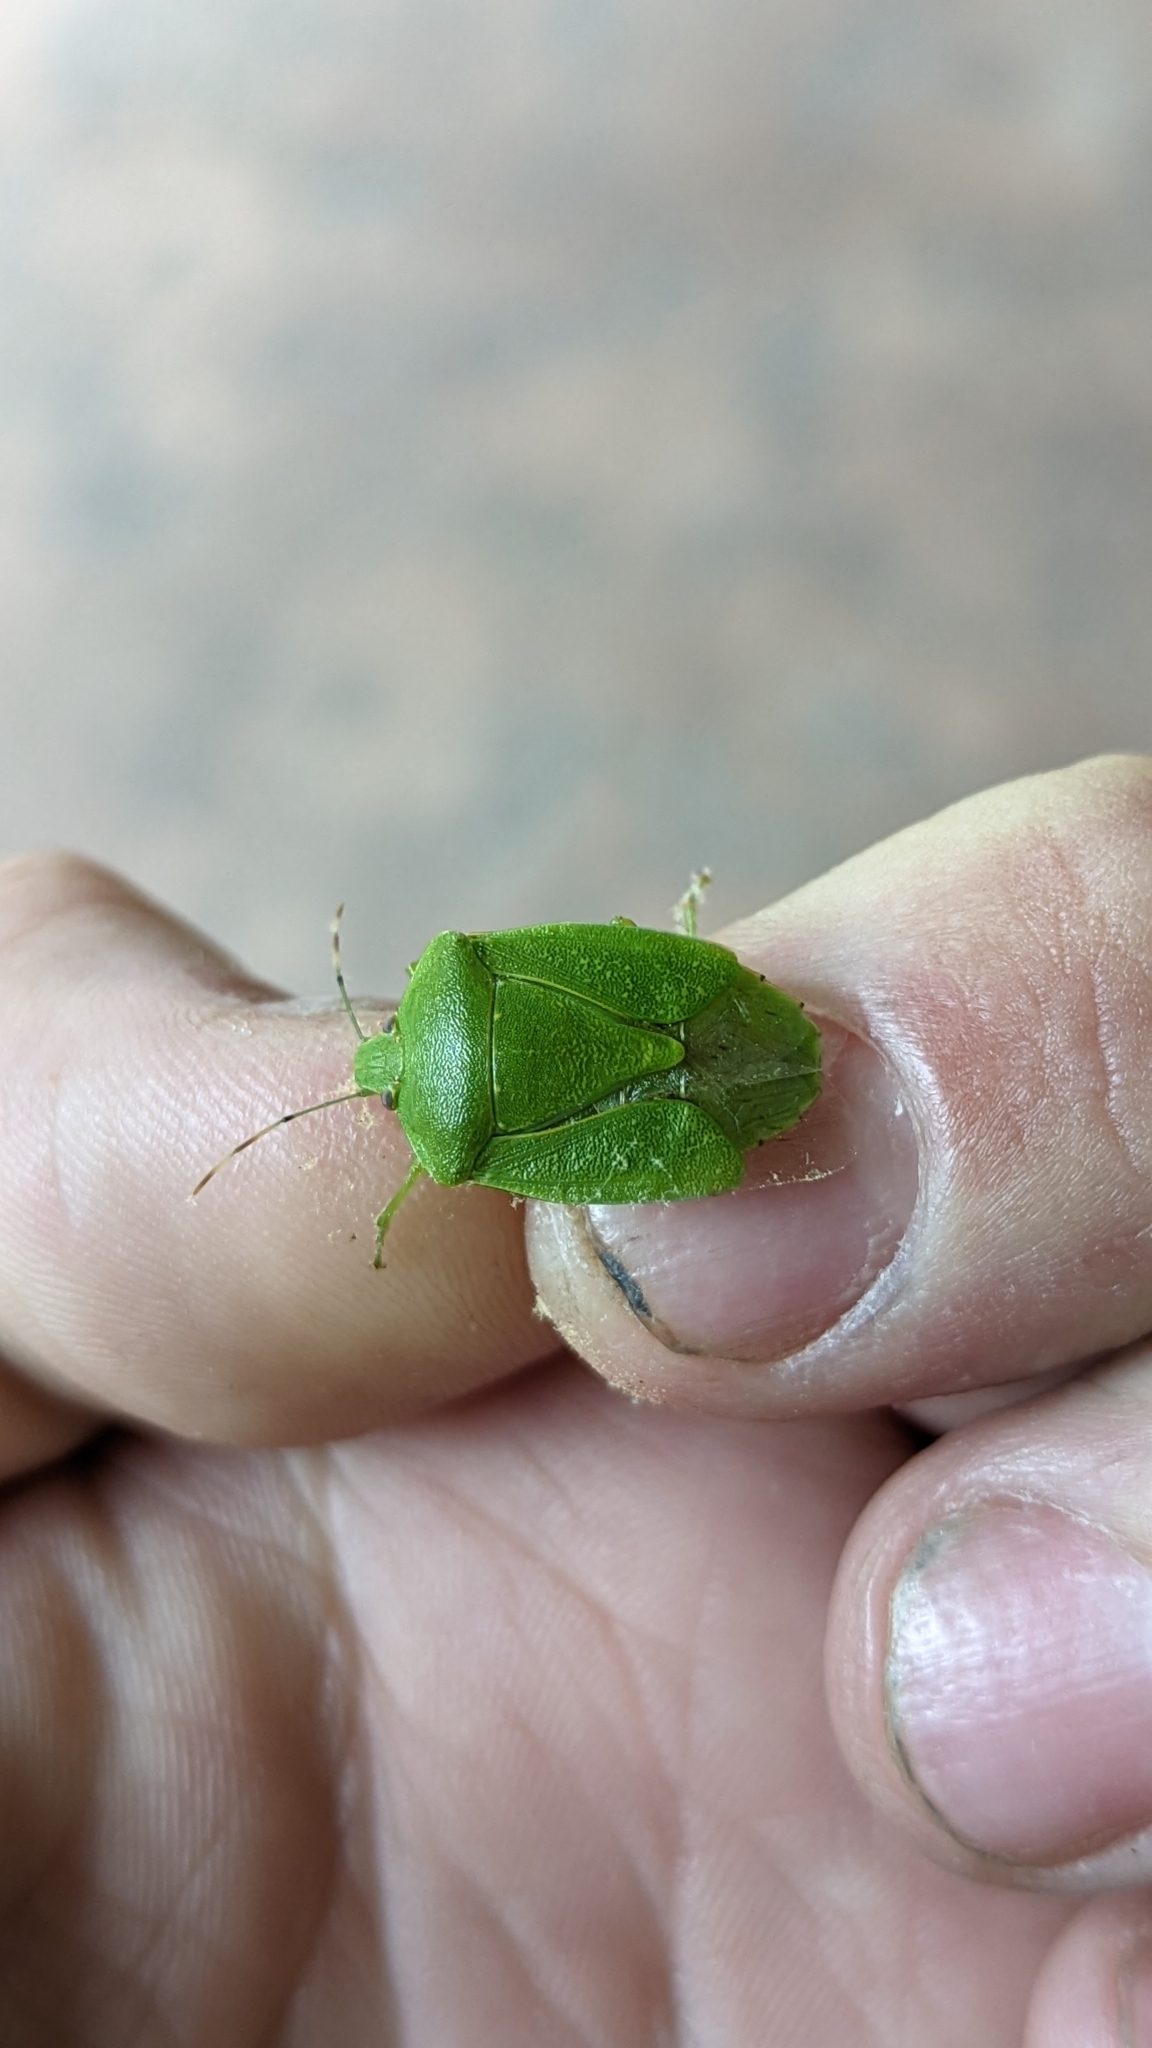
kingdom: Animalia
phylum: Arthropoda
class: Insecta
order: Hemiptera
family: Pentatomidae
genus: Chinavia
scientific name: Chinavia hilaris
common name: Green stink bug
